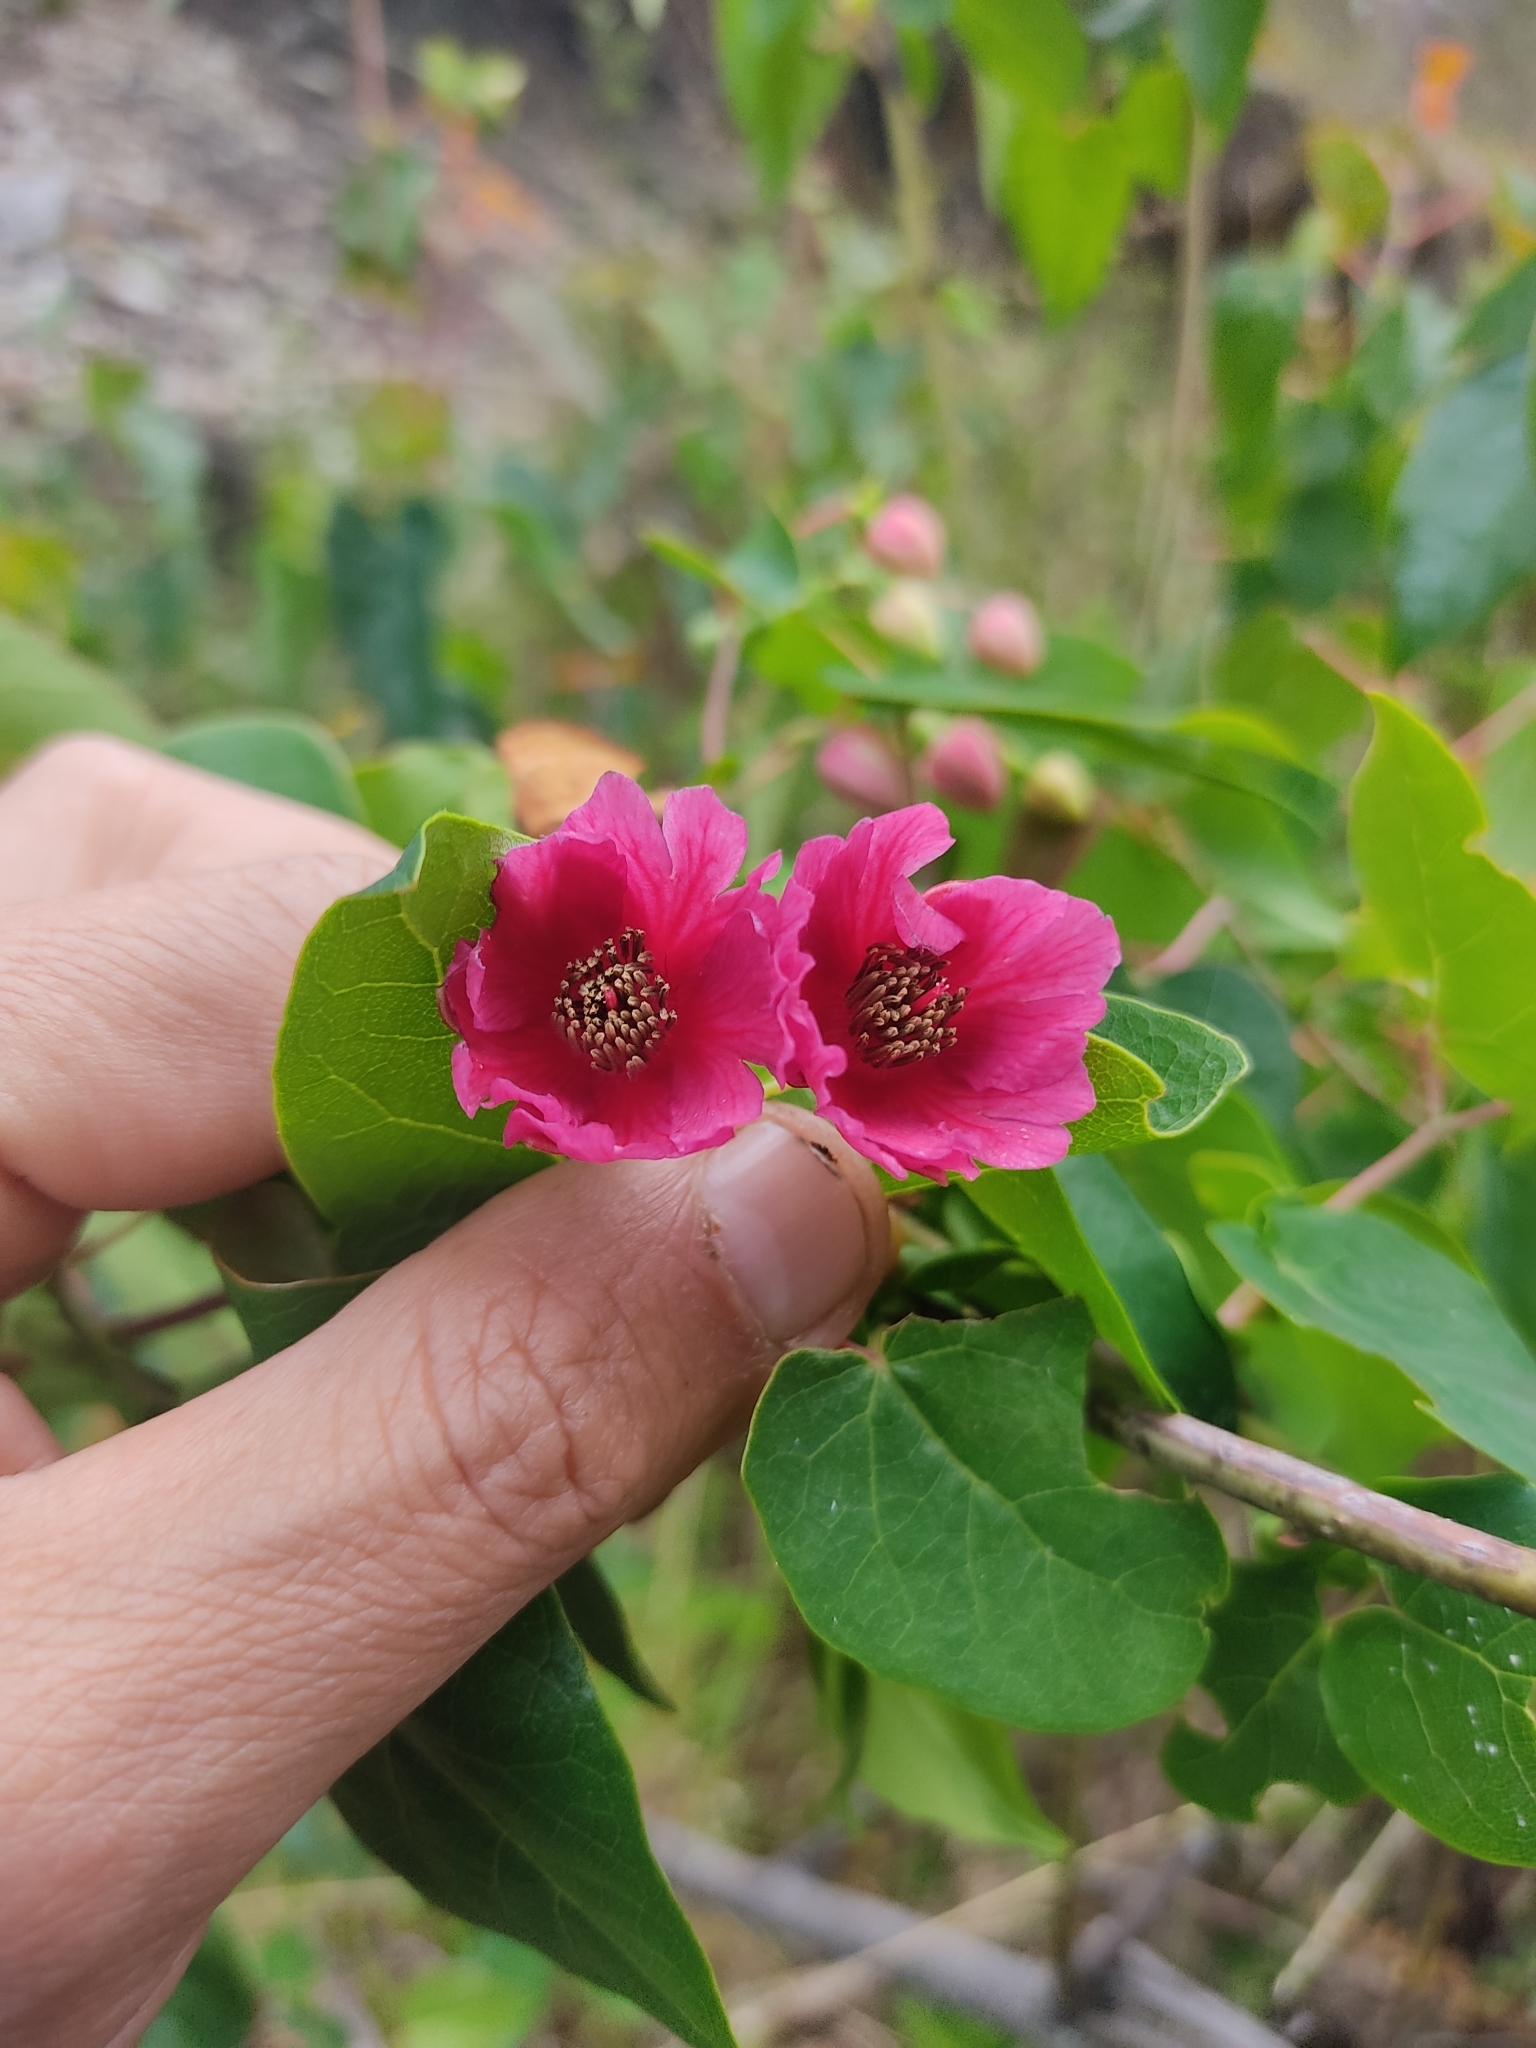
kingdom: Plantae
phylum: Tracheophyta
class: Magnoliopsida
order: Oxalidales
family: Elaeocarpaceae
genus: Vallea
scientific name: Vallea stipularis
